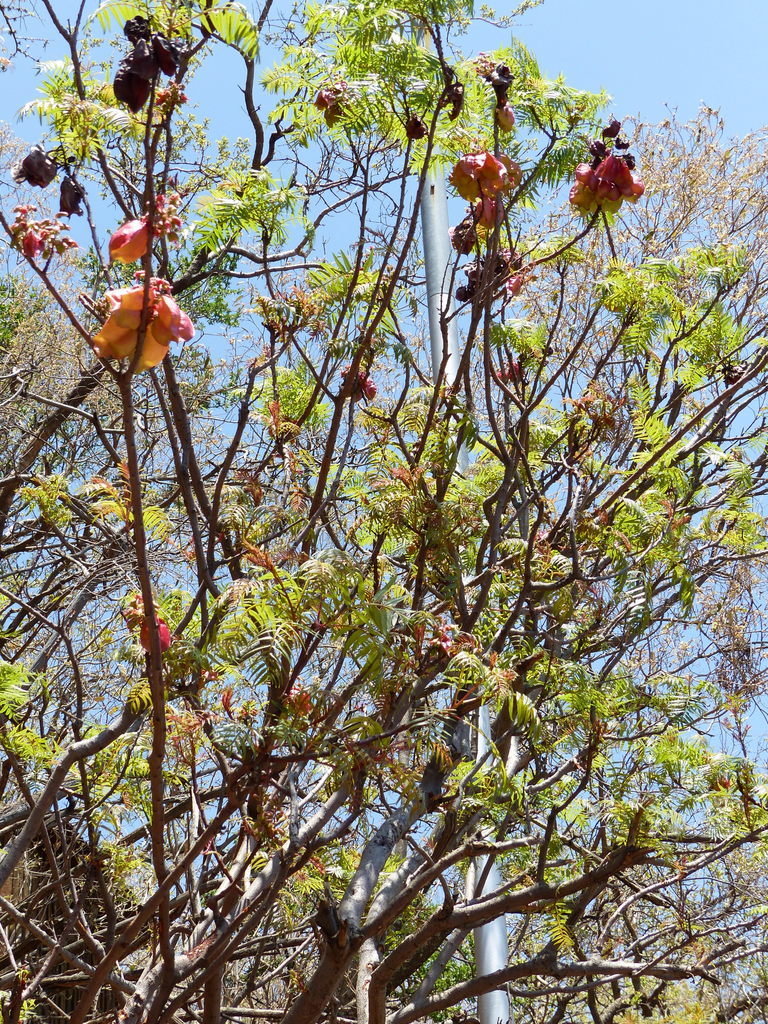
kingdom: Plantae
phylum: Tracheophyta
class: Magnoliopsida
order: Sapindales
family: Sapindaceae
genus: Erythrophysa
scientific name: Erythrophysa transvaalensis
